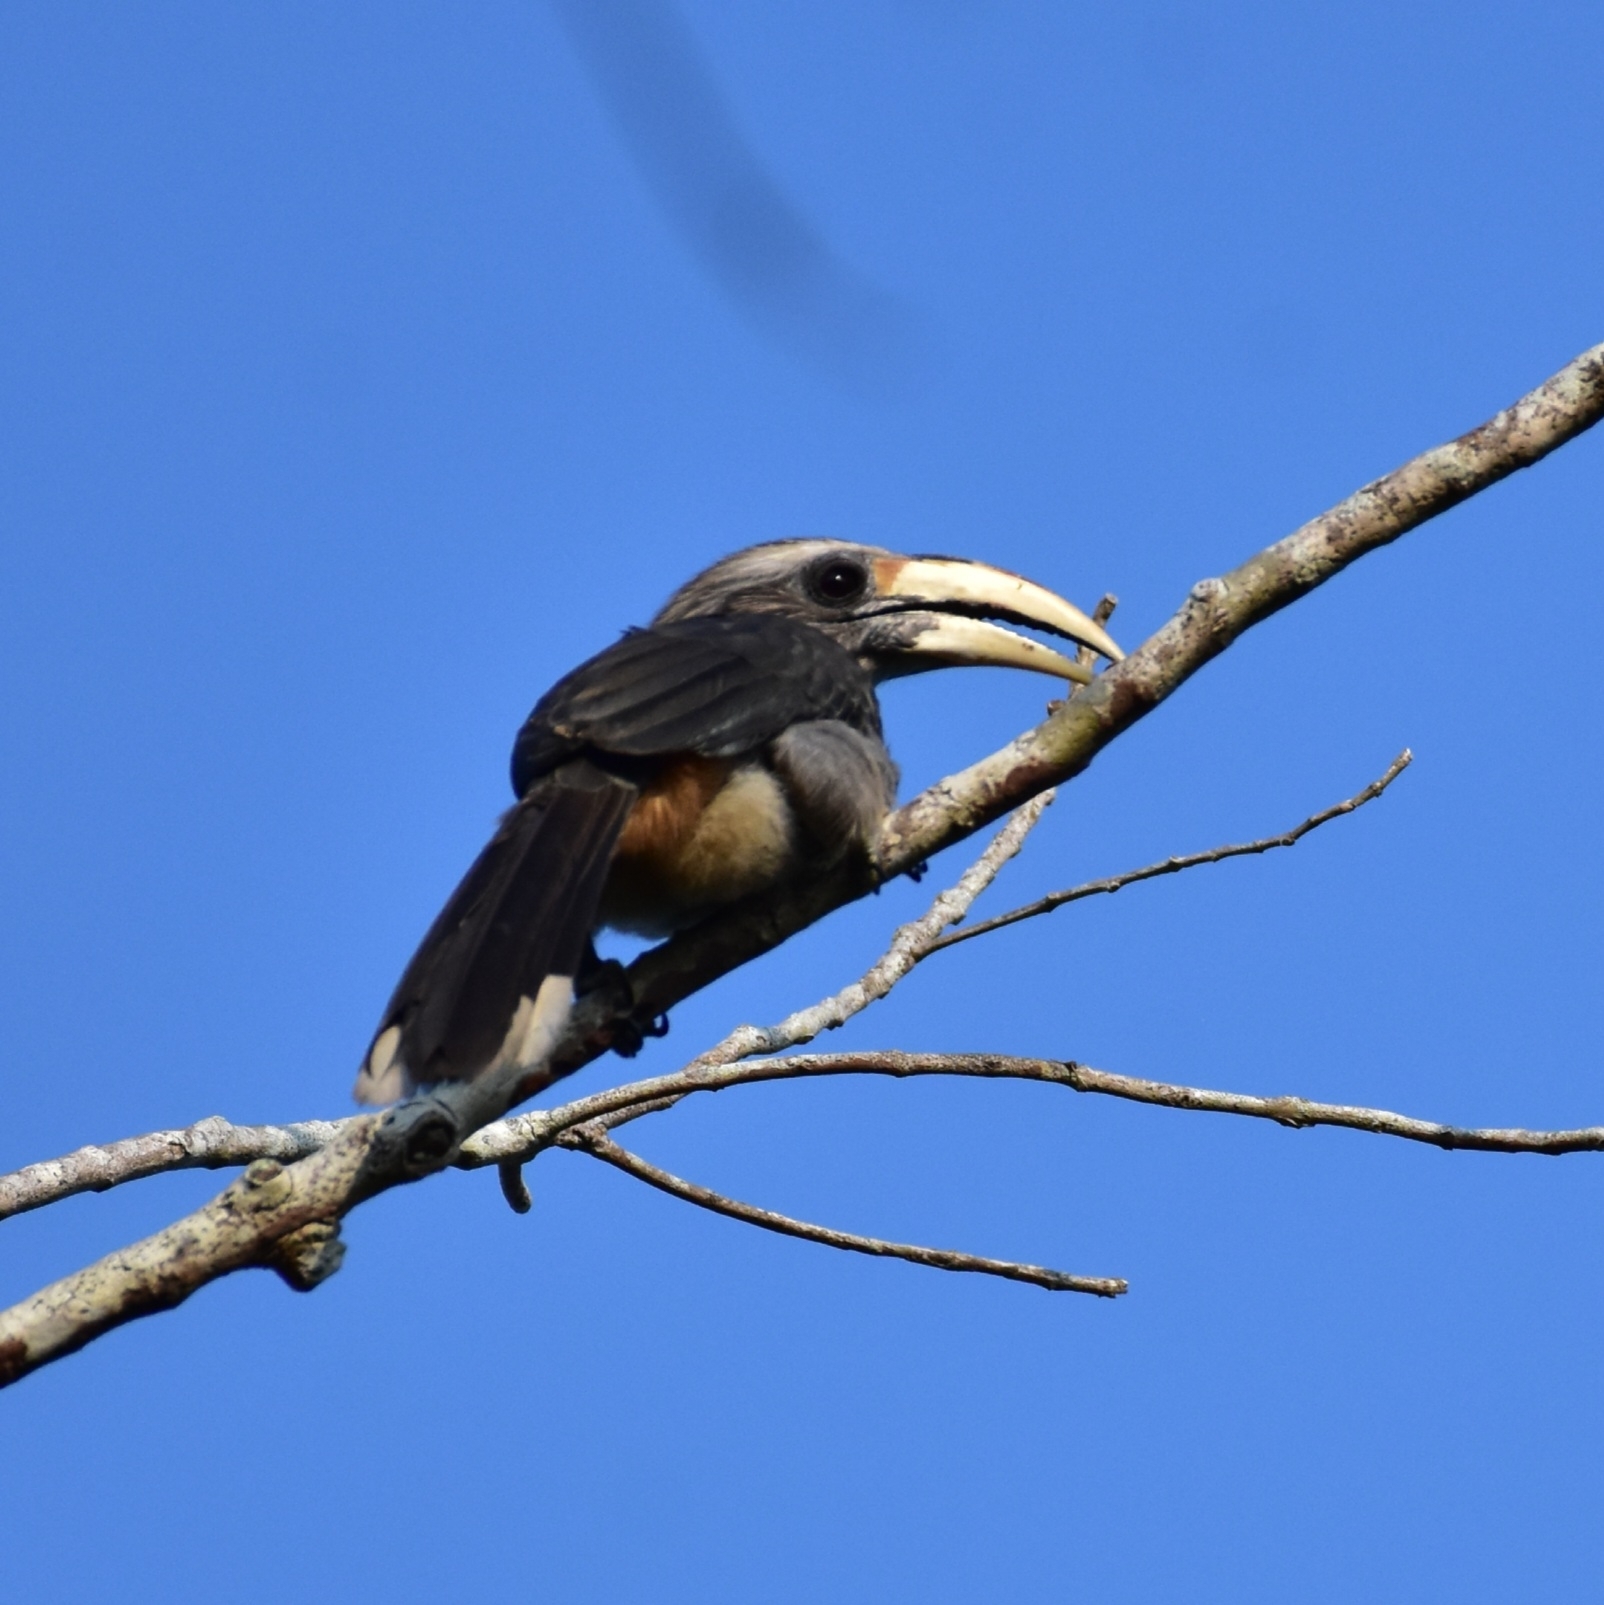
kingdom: Animalia
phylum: Chordata
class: Aves
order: Bucerotiformes
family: Bucerotidae
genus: Ocyceros
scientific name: Ocyceros griseus
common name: Malabar grey hornbill
